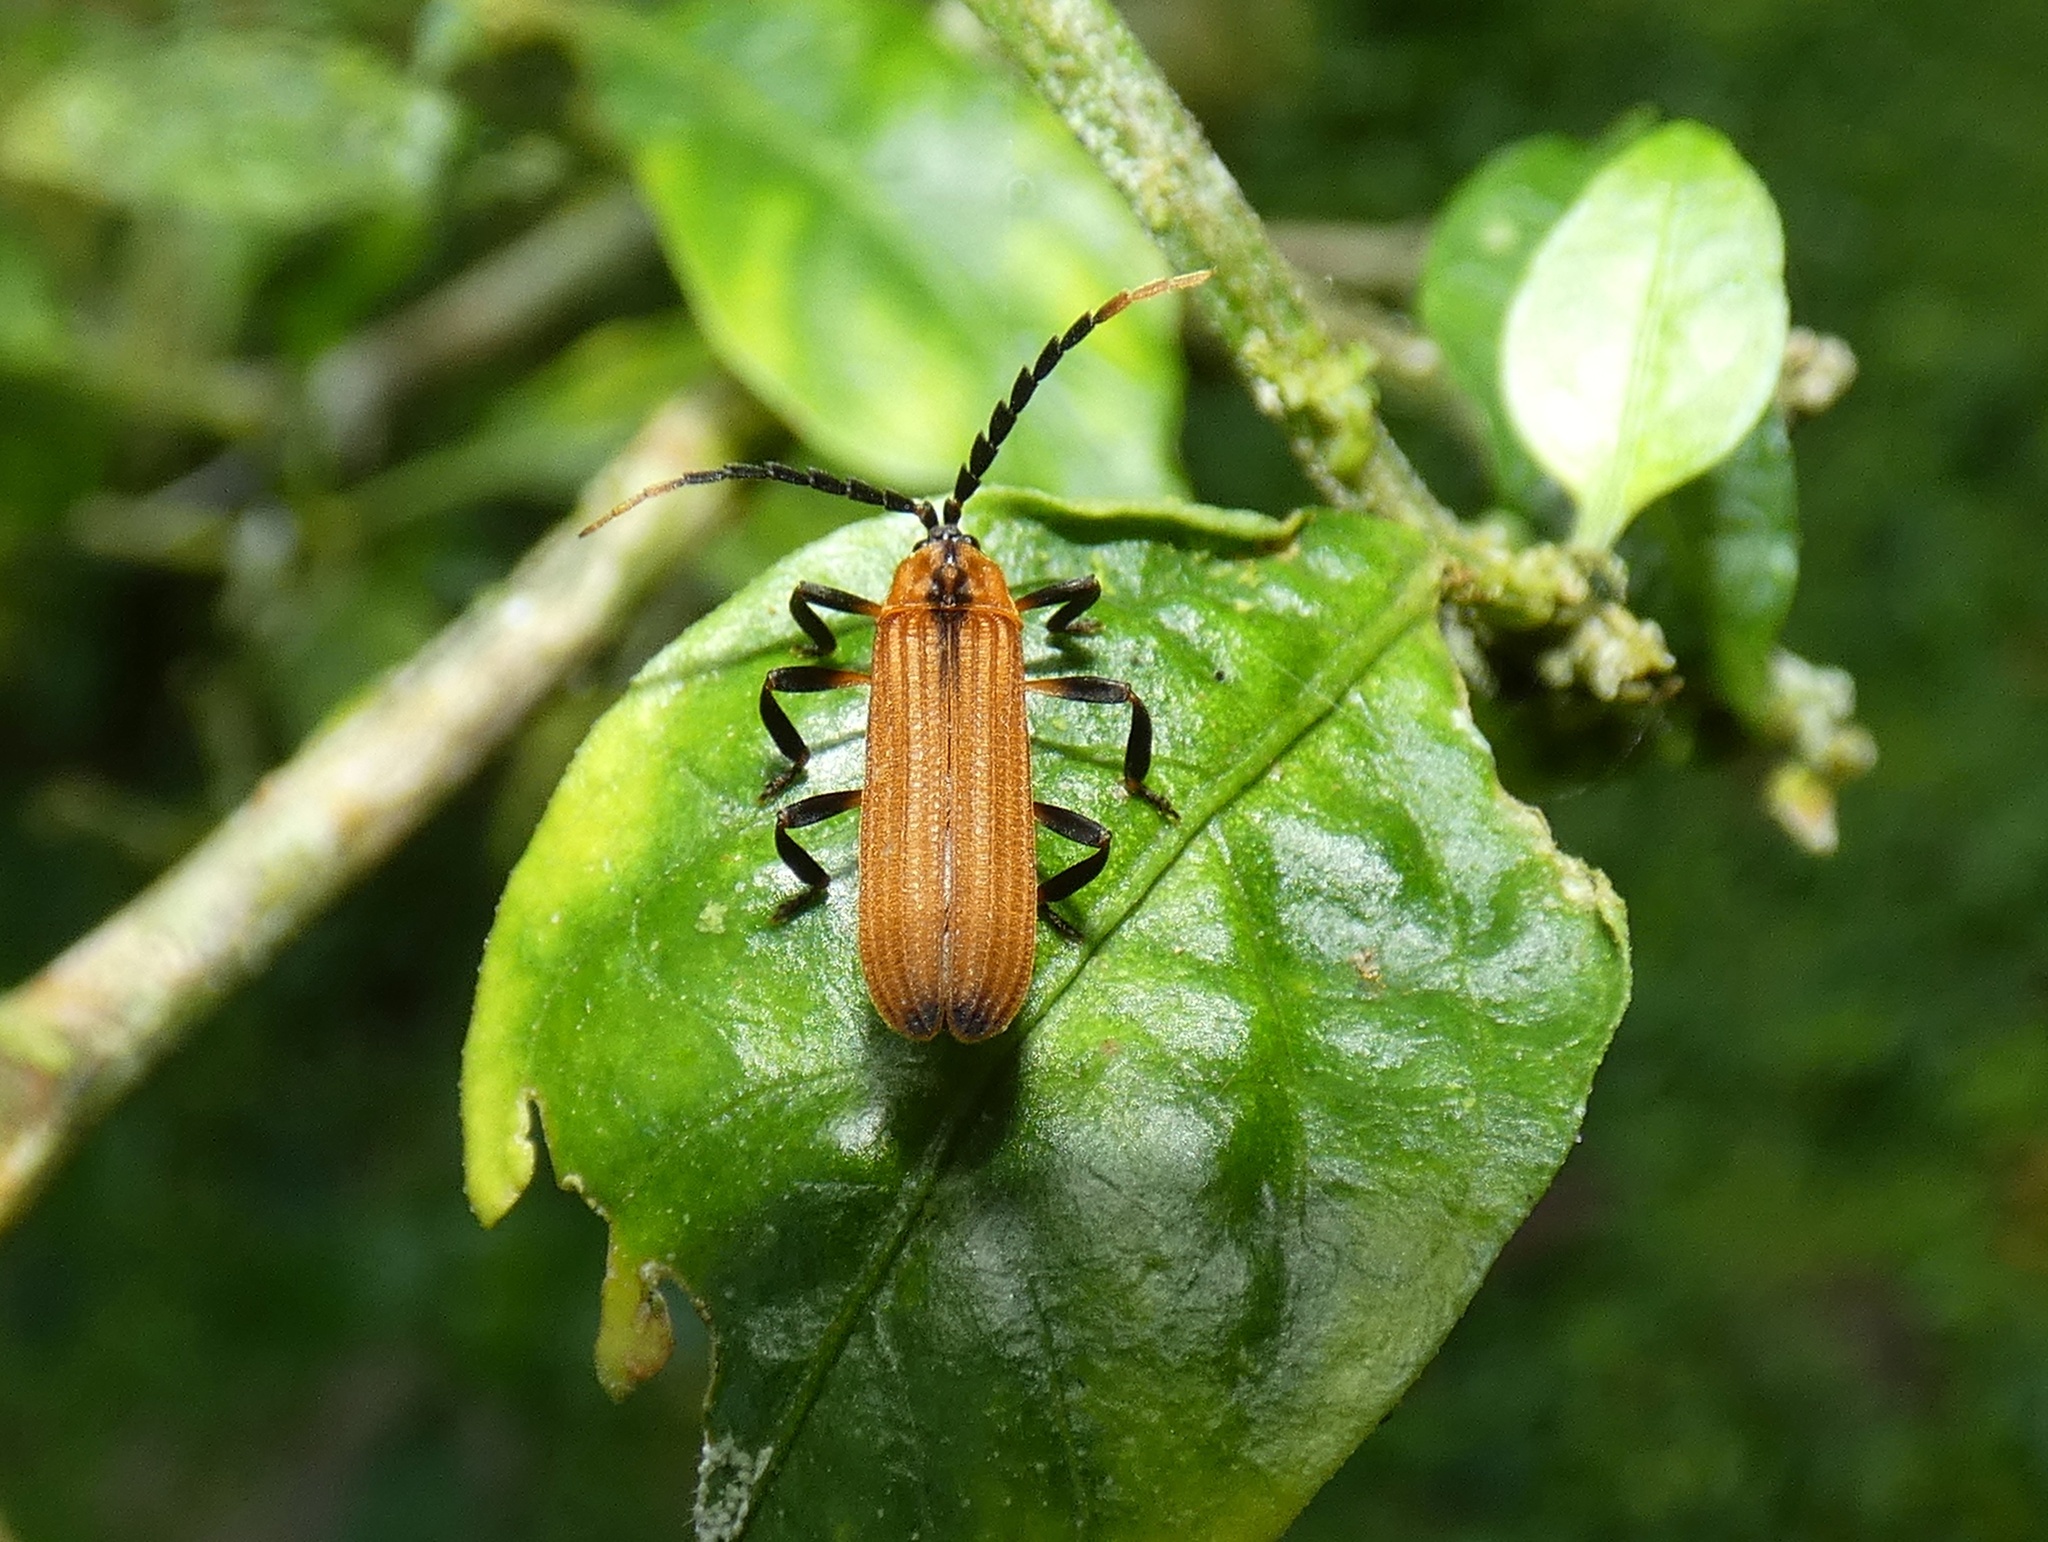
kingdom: Animalia
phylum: Arthropoda
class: Insecta
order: Coleoptera
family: Lycidae
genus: Metapteron
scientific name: Metapteron
